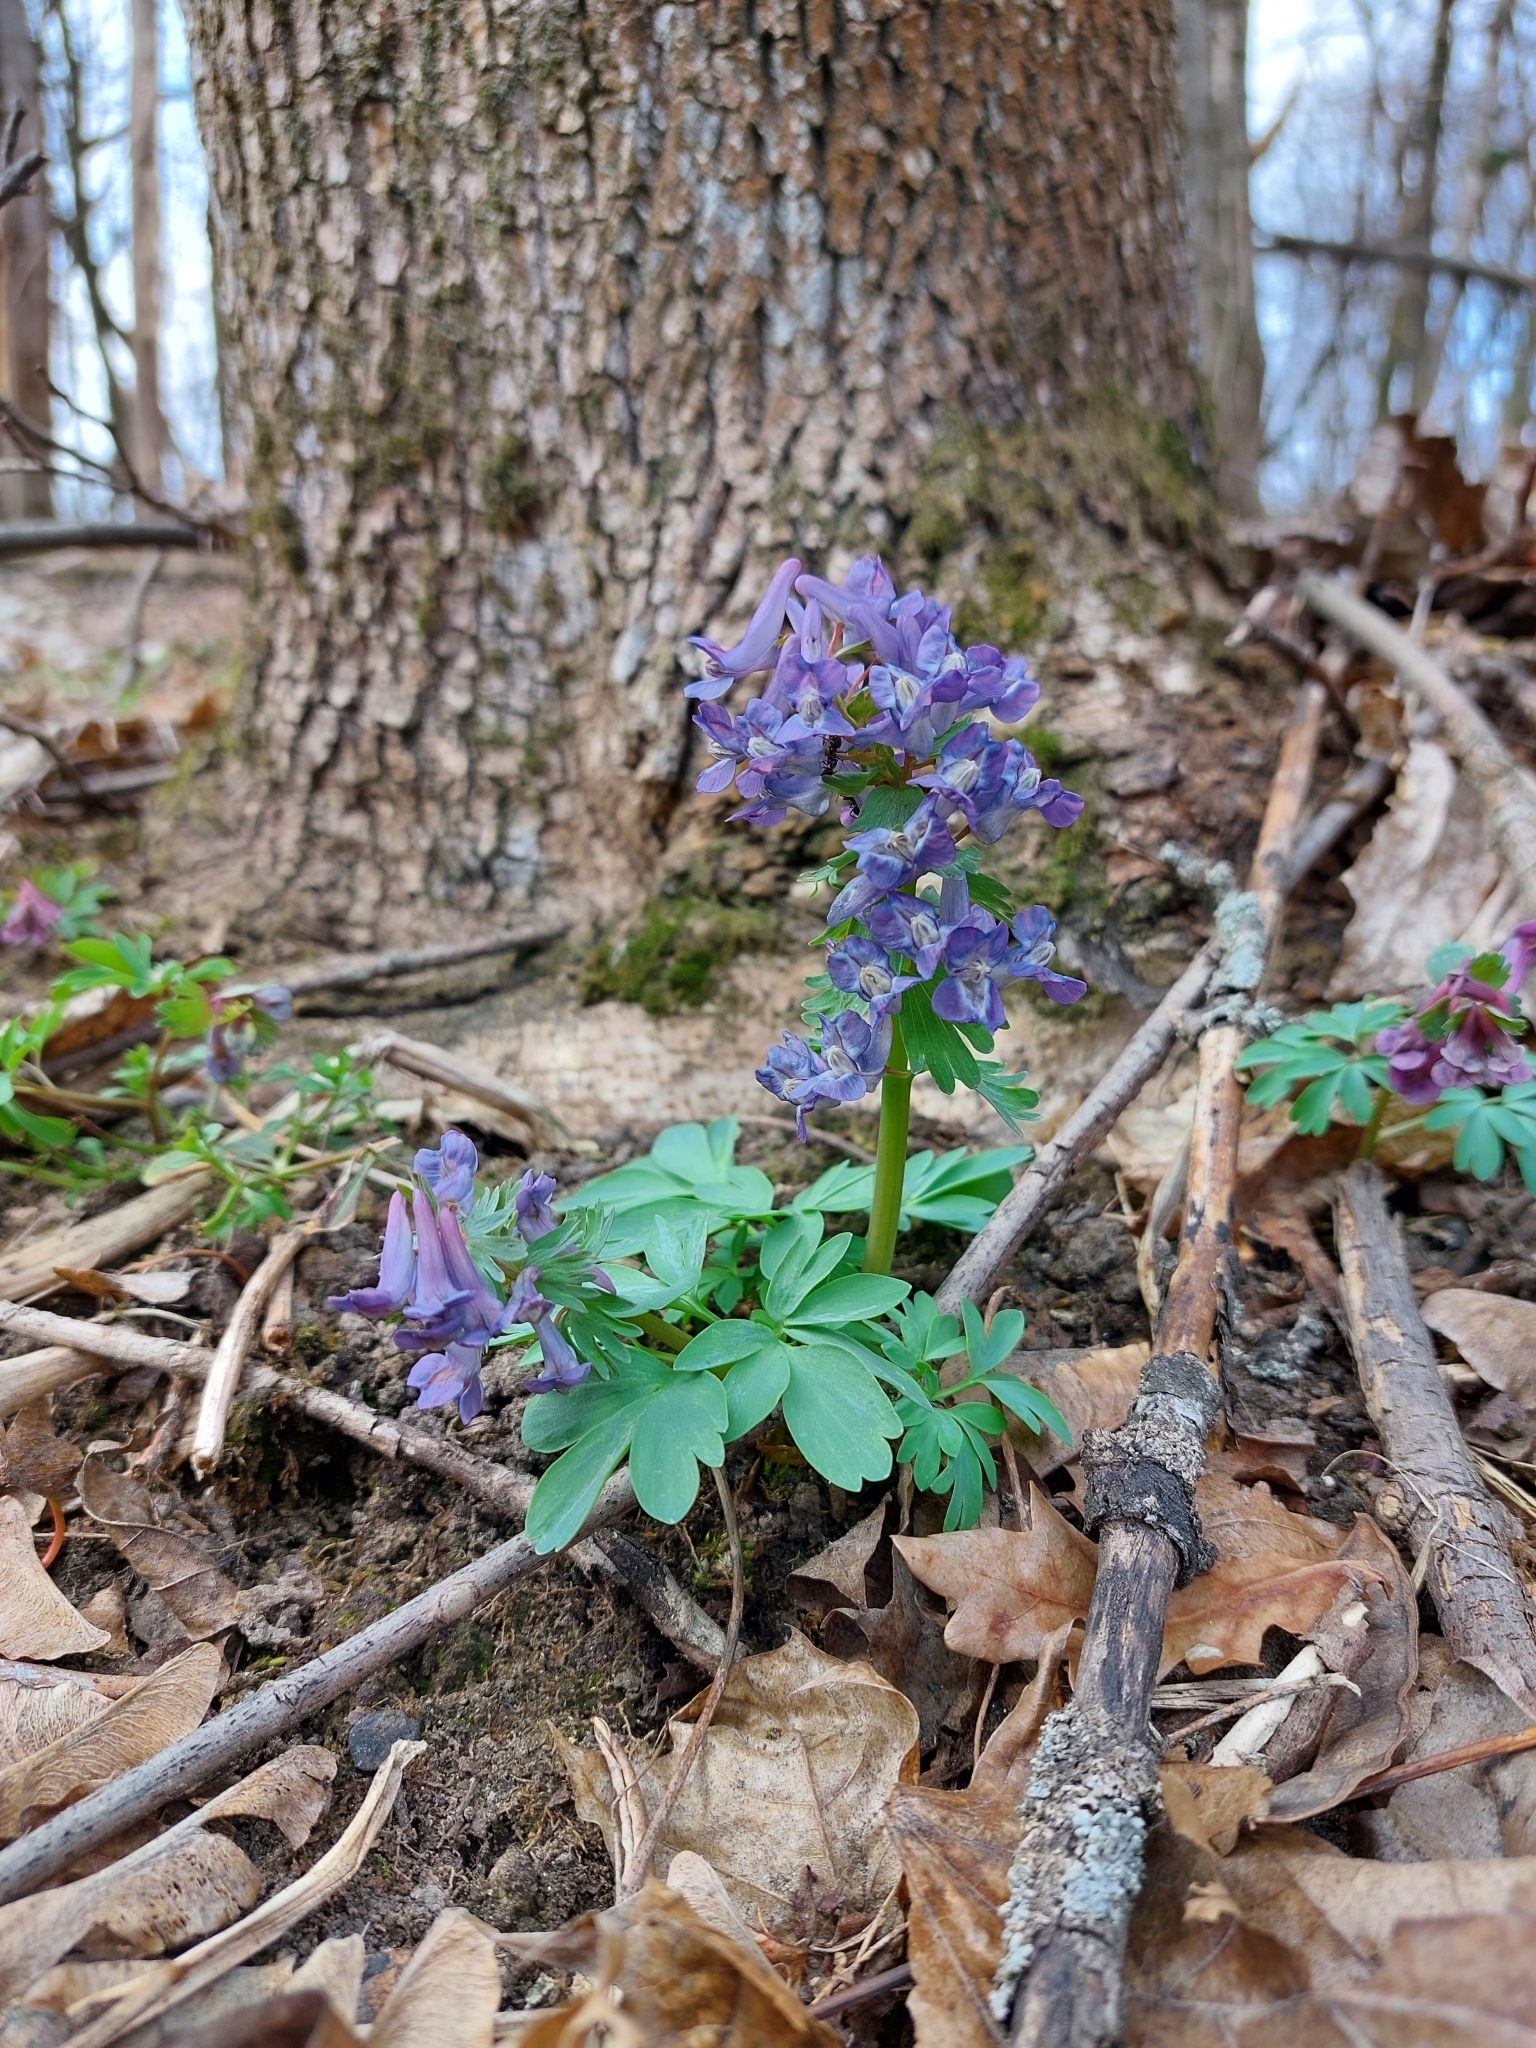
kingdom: Plantae
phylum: Tracheophyta
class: Magnoliopsida
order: Ranunculales
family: Papaveraceae
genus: Corydalis
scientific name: Corydalis solida
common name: Bird-in-a-bush
